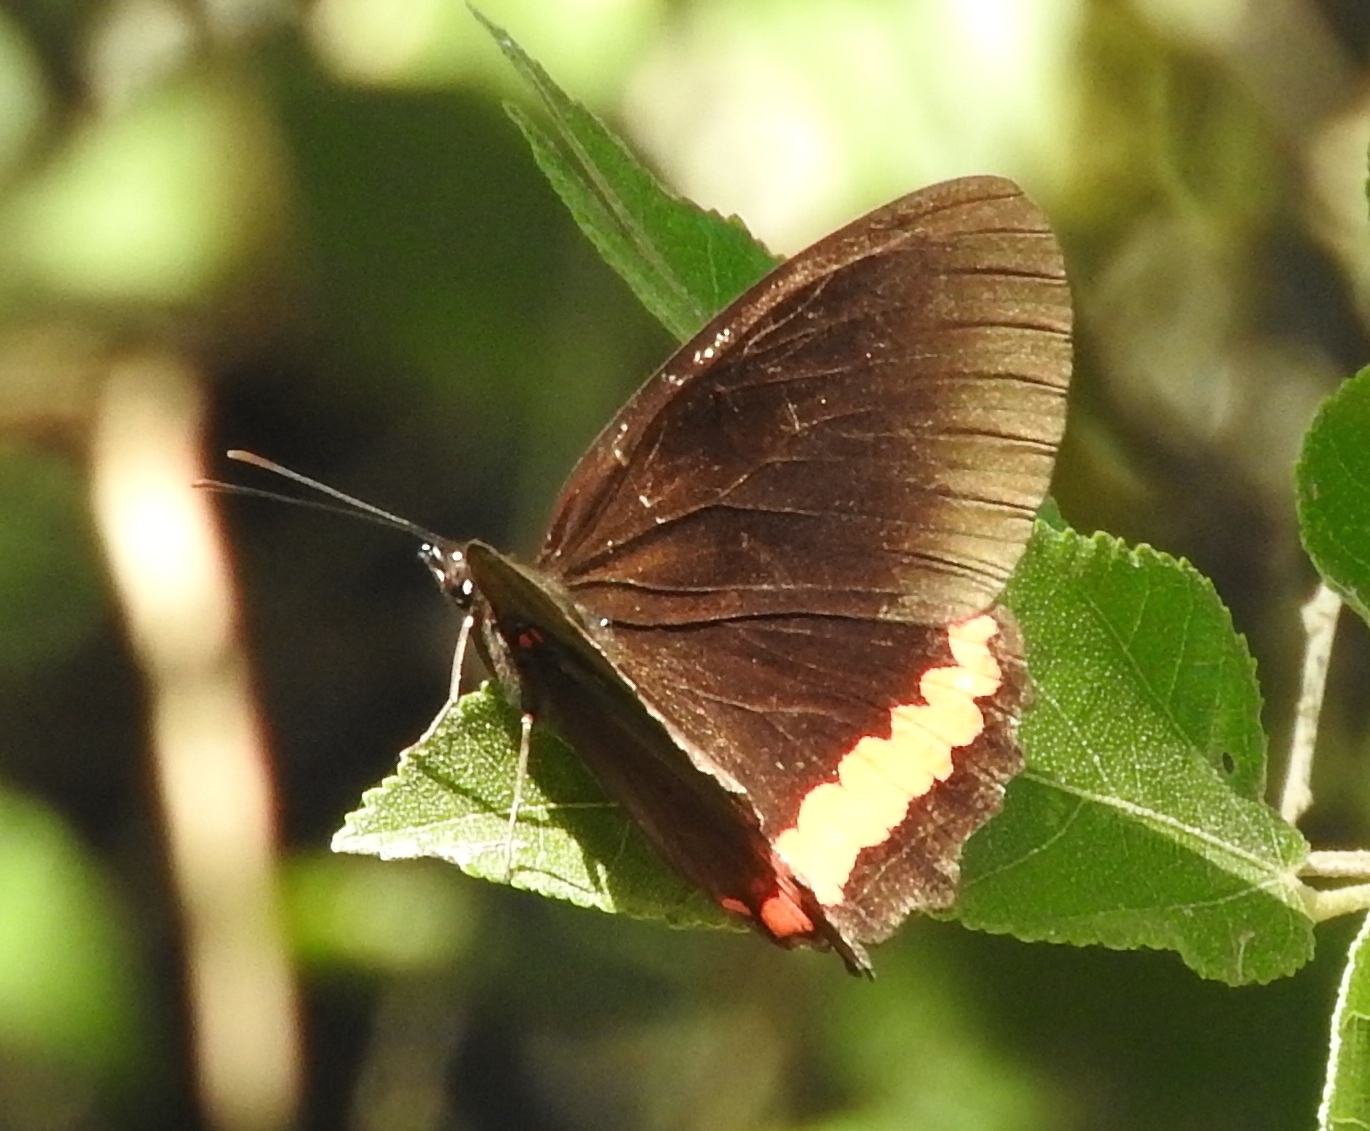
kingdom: Animalia
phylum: Arthropoda
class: Insecta
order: Lepidoptera
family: Nymphalidae
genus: Biblis
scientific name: Biblis aganisa
